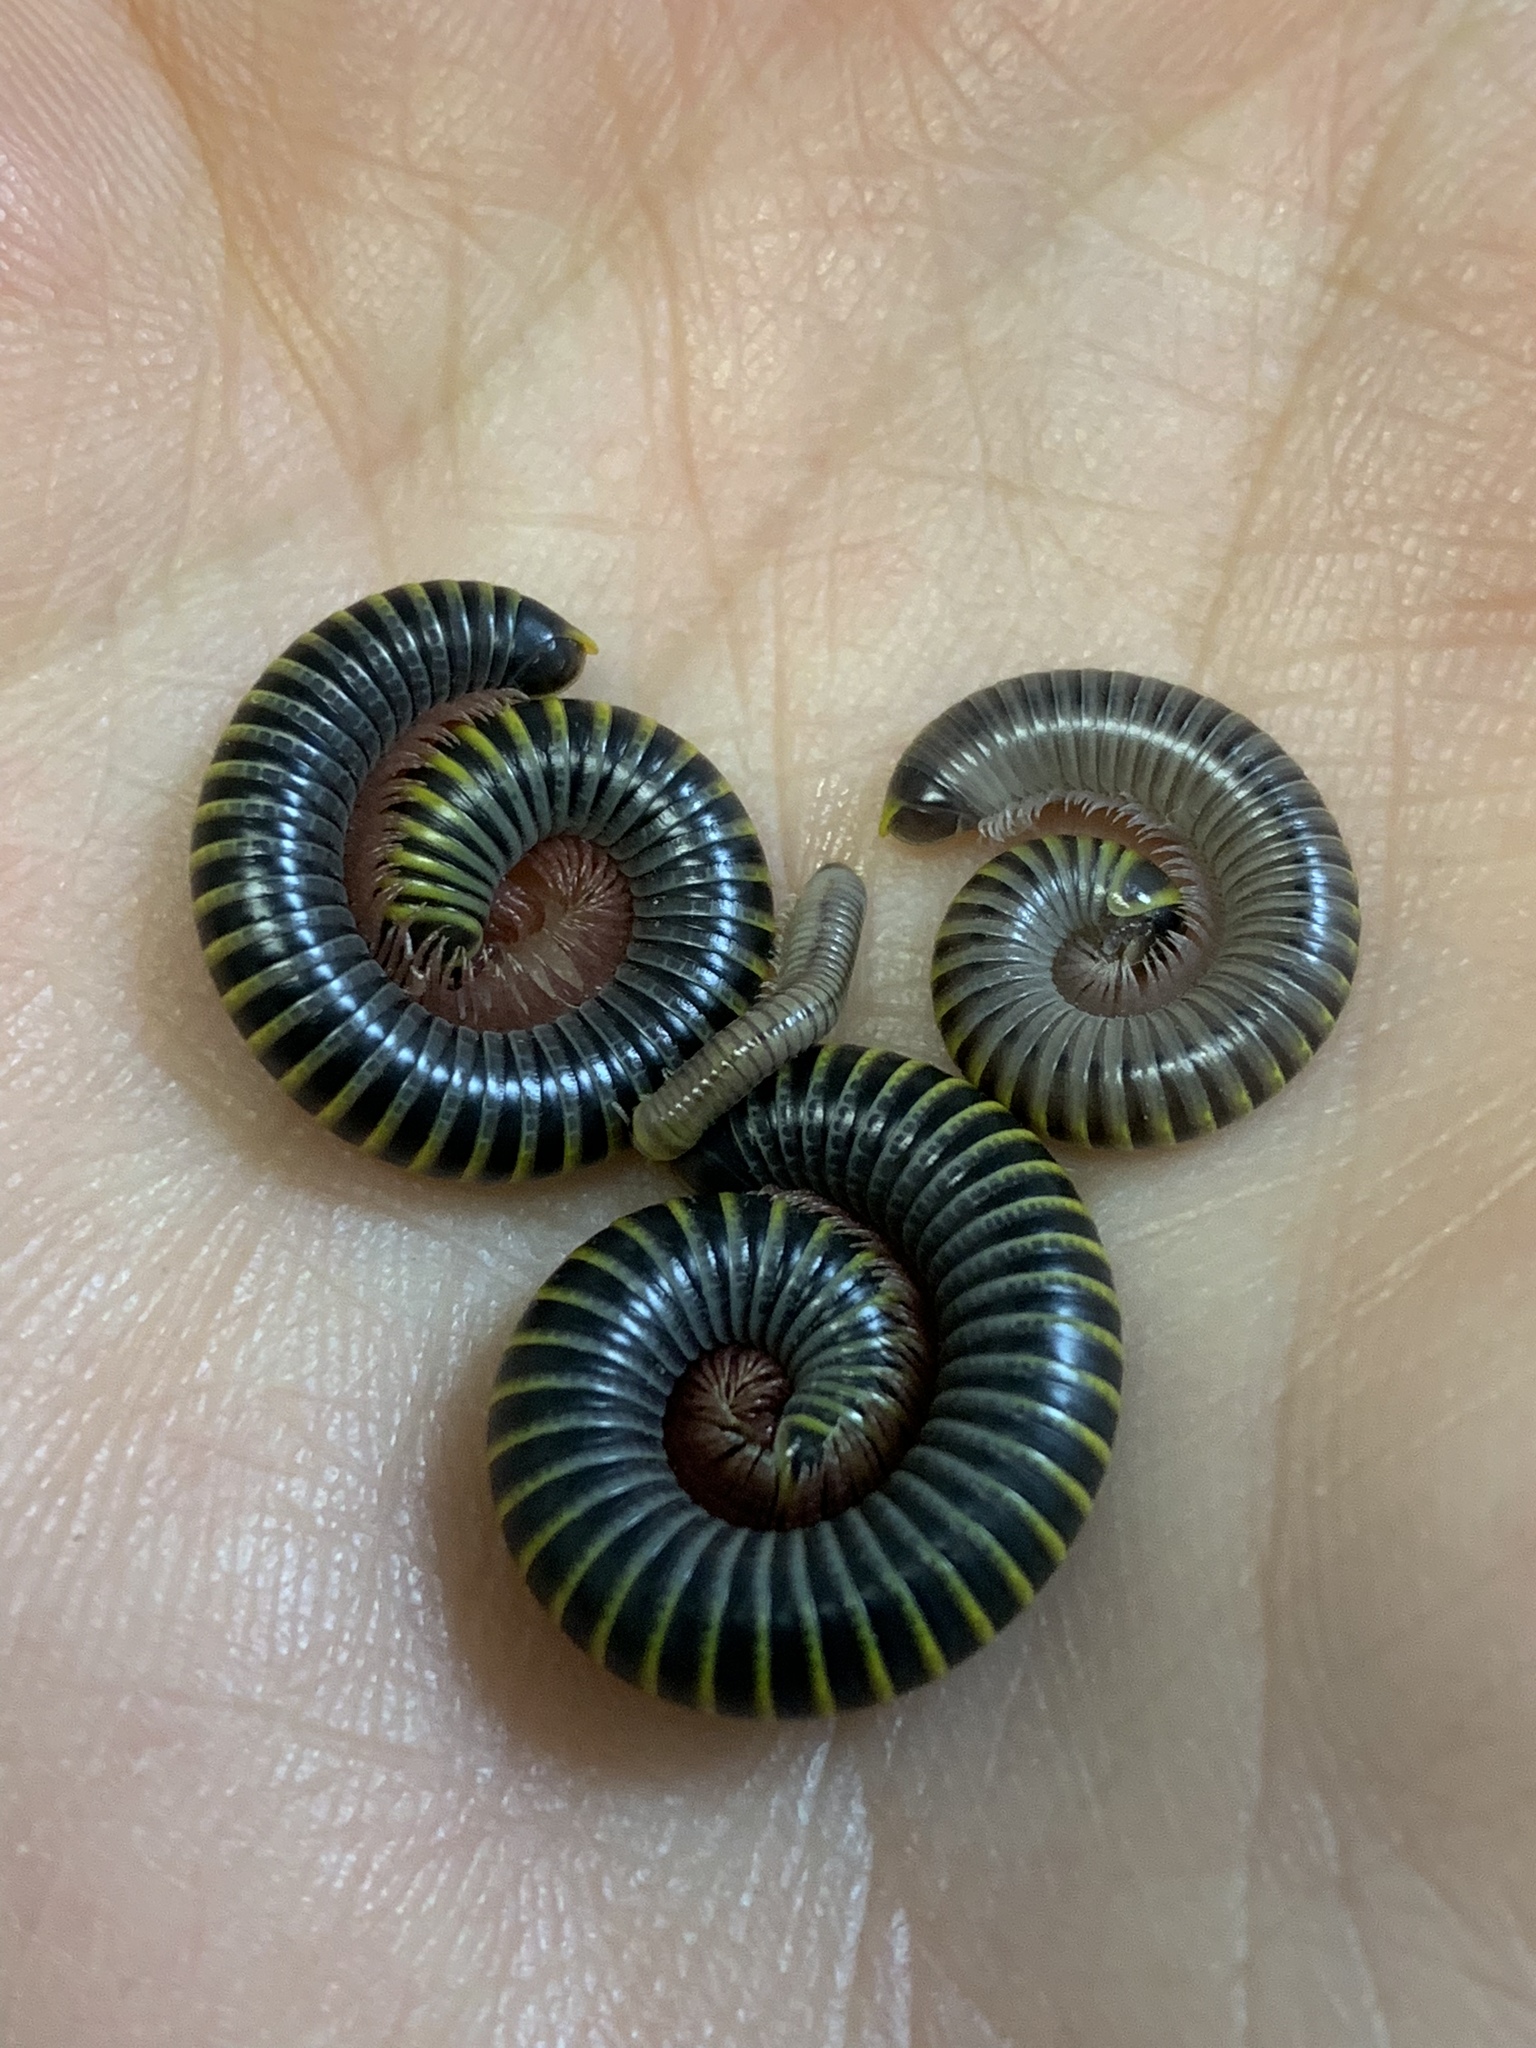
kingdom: Animalia
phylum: Arthropoda
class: Diplopoda
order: Spirobolida
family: Rhinocricidae
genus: Anadenobolus
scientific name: Anadenobolus monilicornis
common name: Caribbean millipede
